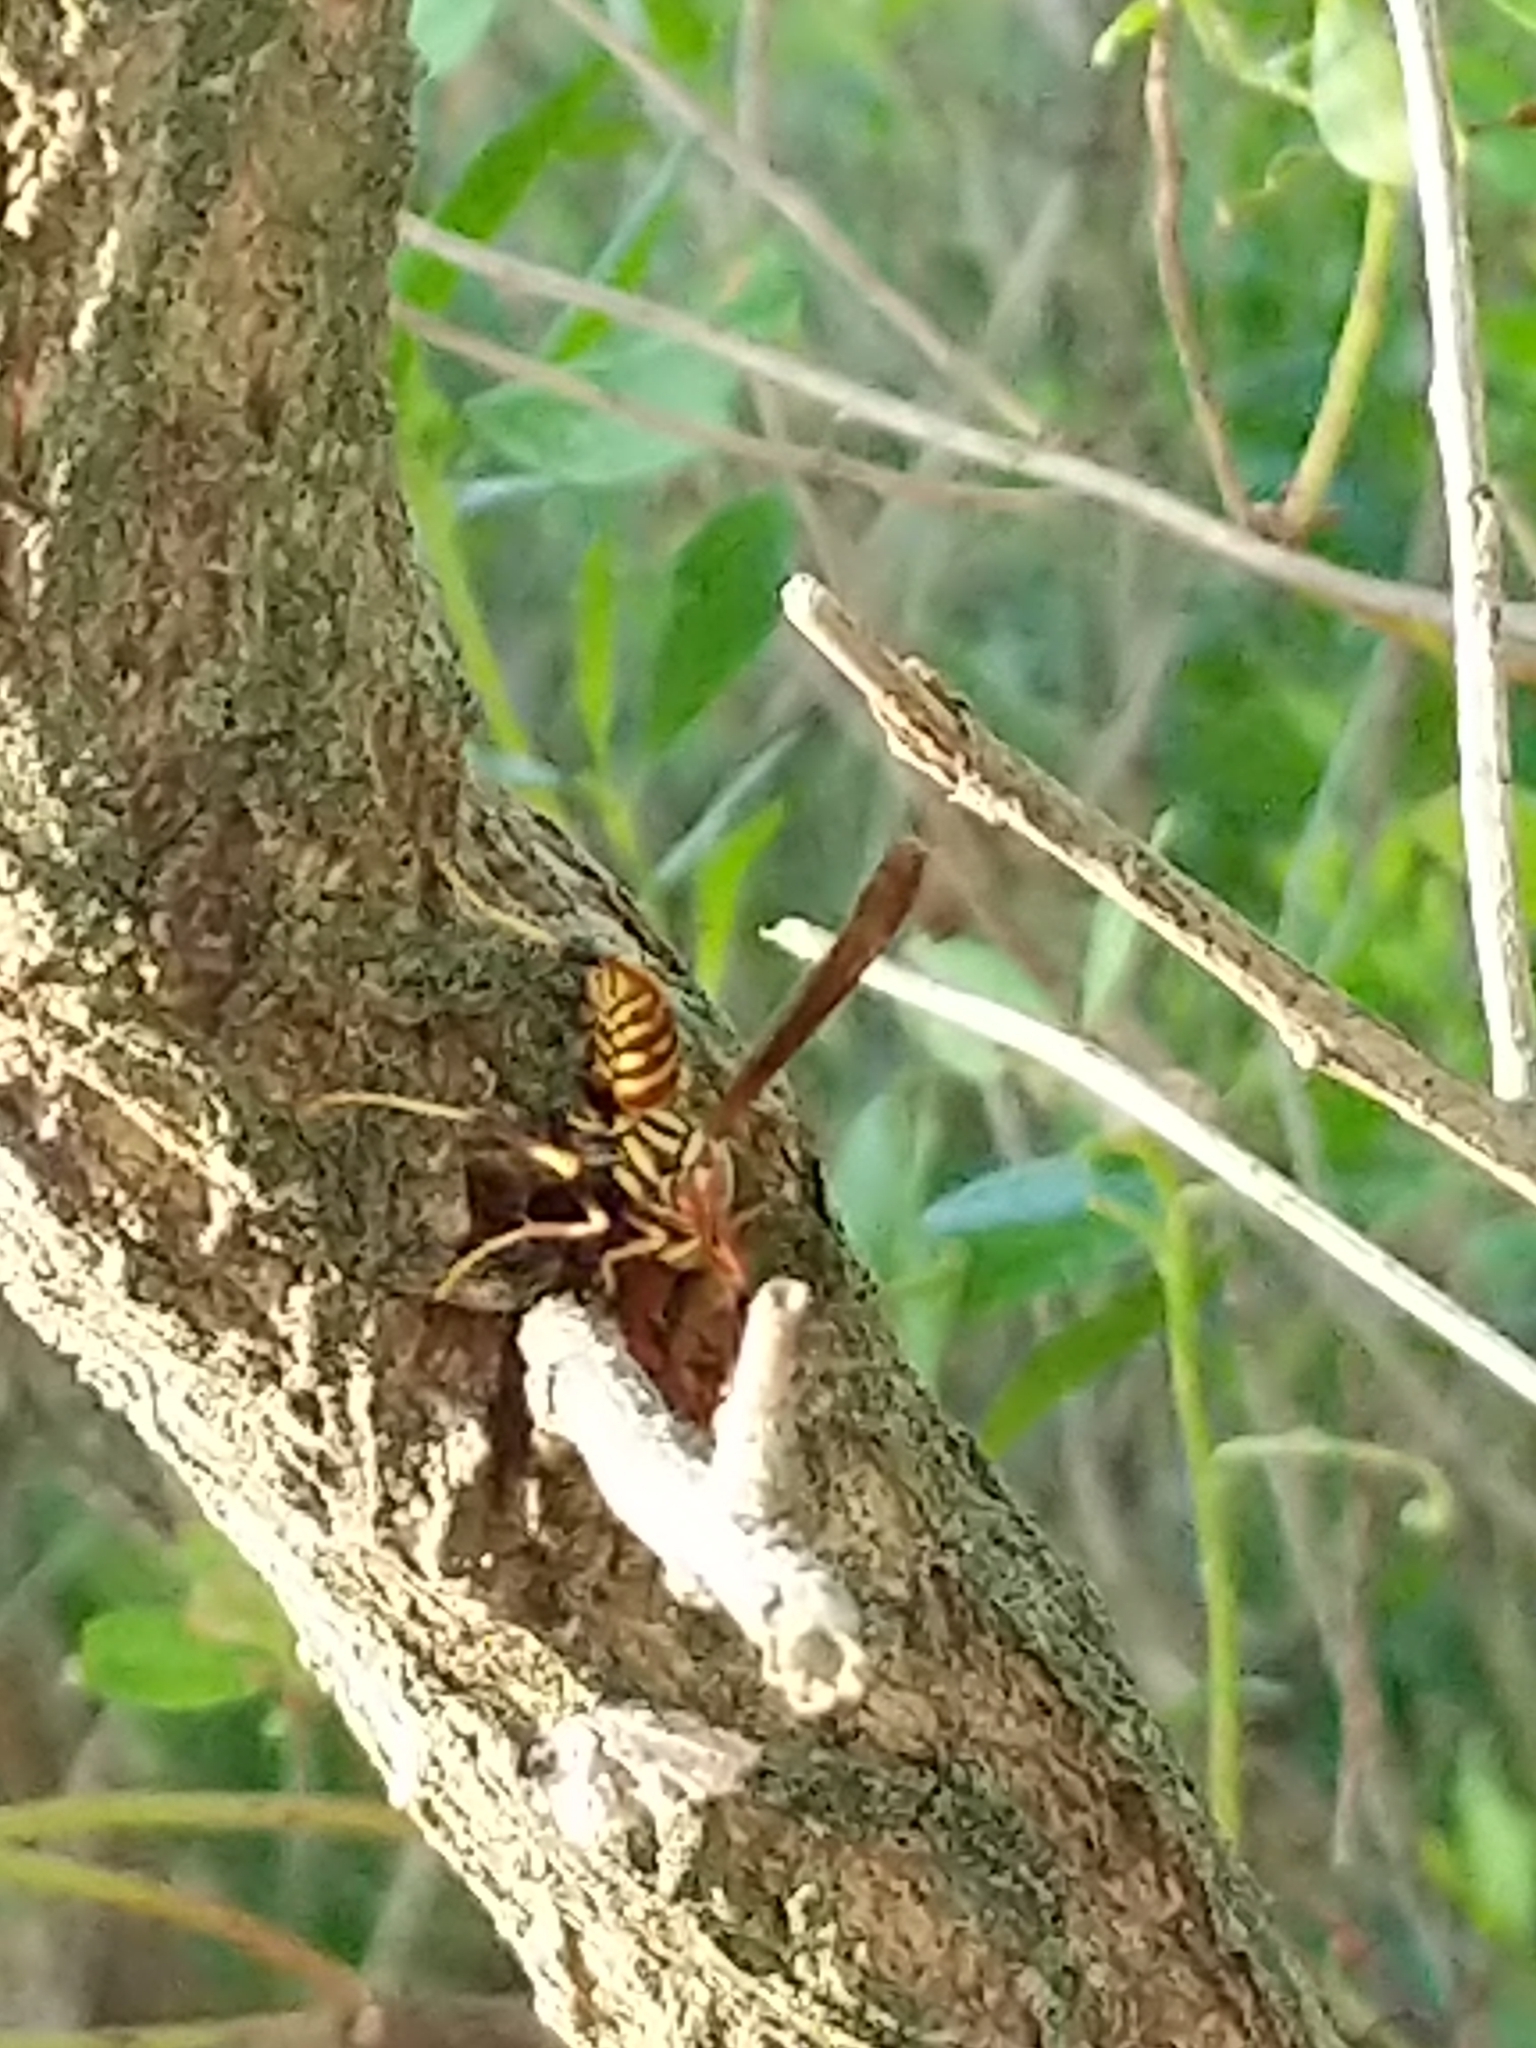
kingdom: Animalia
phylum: Arthropoda
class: Insecta
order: Hymenoptera
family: Eumenidae
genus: Polistes
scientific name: Polistes exclamans
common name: Paper wasp
